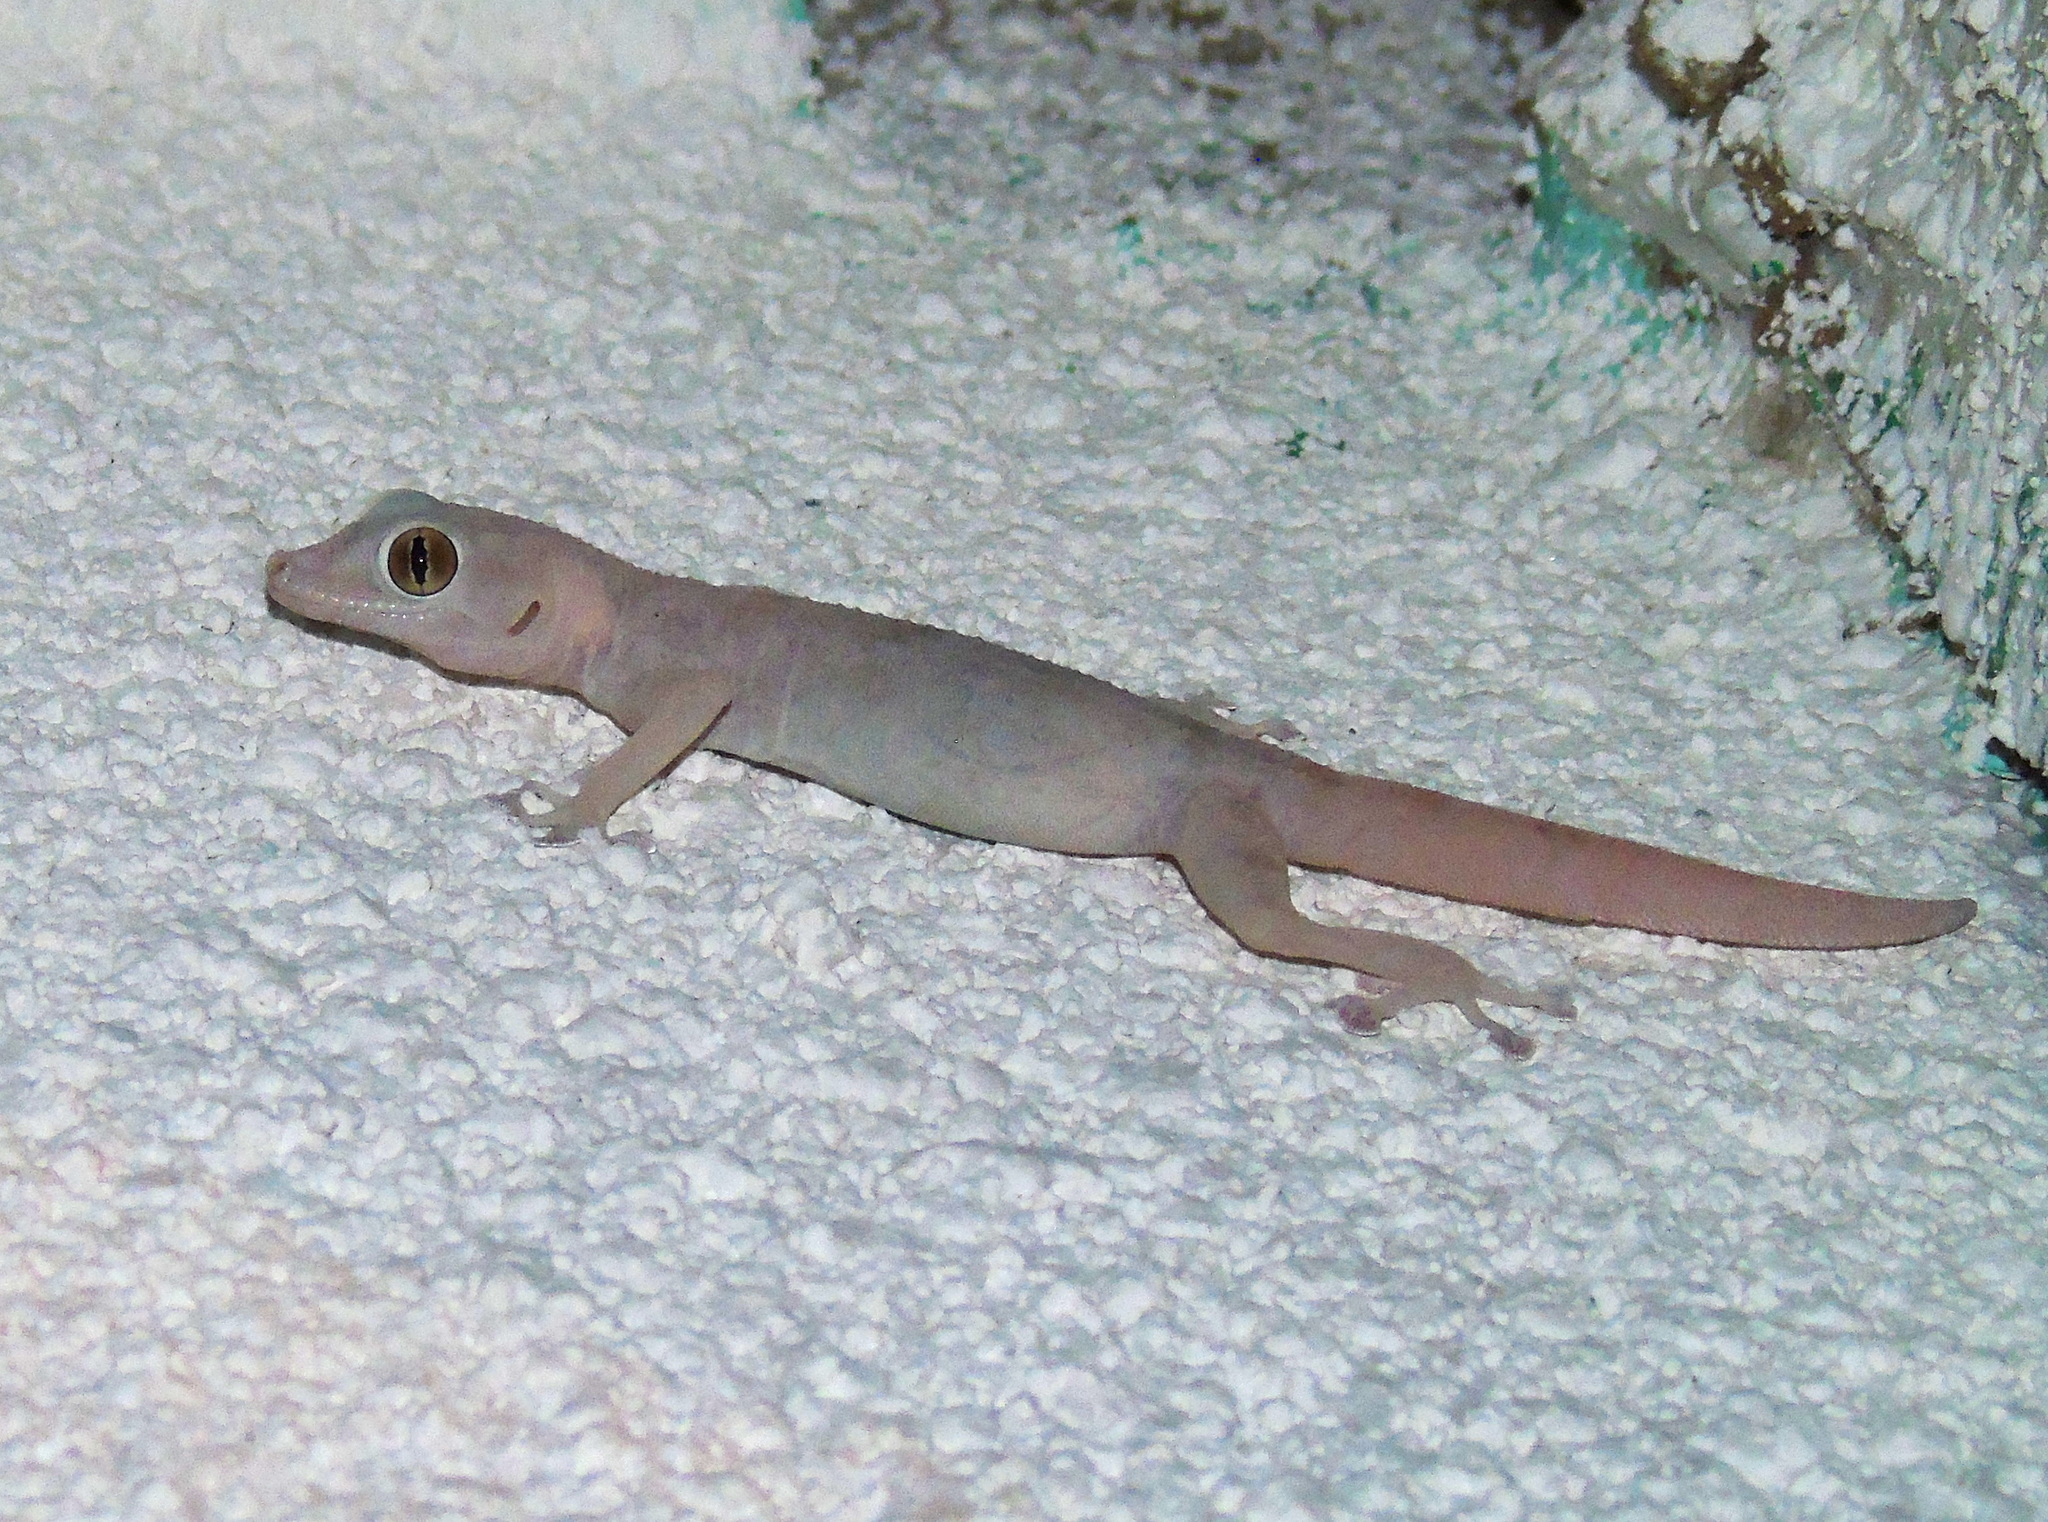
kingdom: Animalia
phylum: Chordata
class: Squamata
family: Phyllodactylidae
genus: Ptyodactylus
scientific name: Ptyodactylus hasselquistii
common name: Hasselquist’s fan-footed gecko
